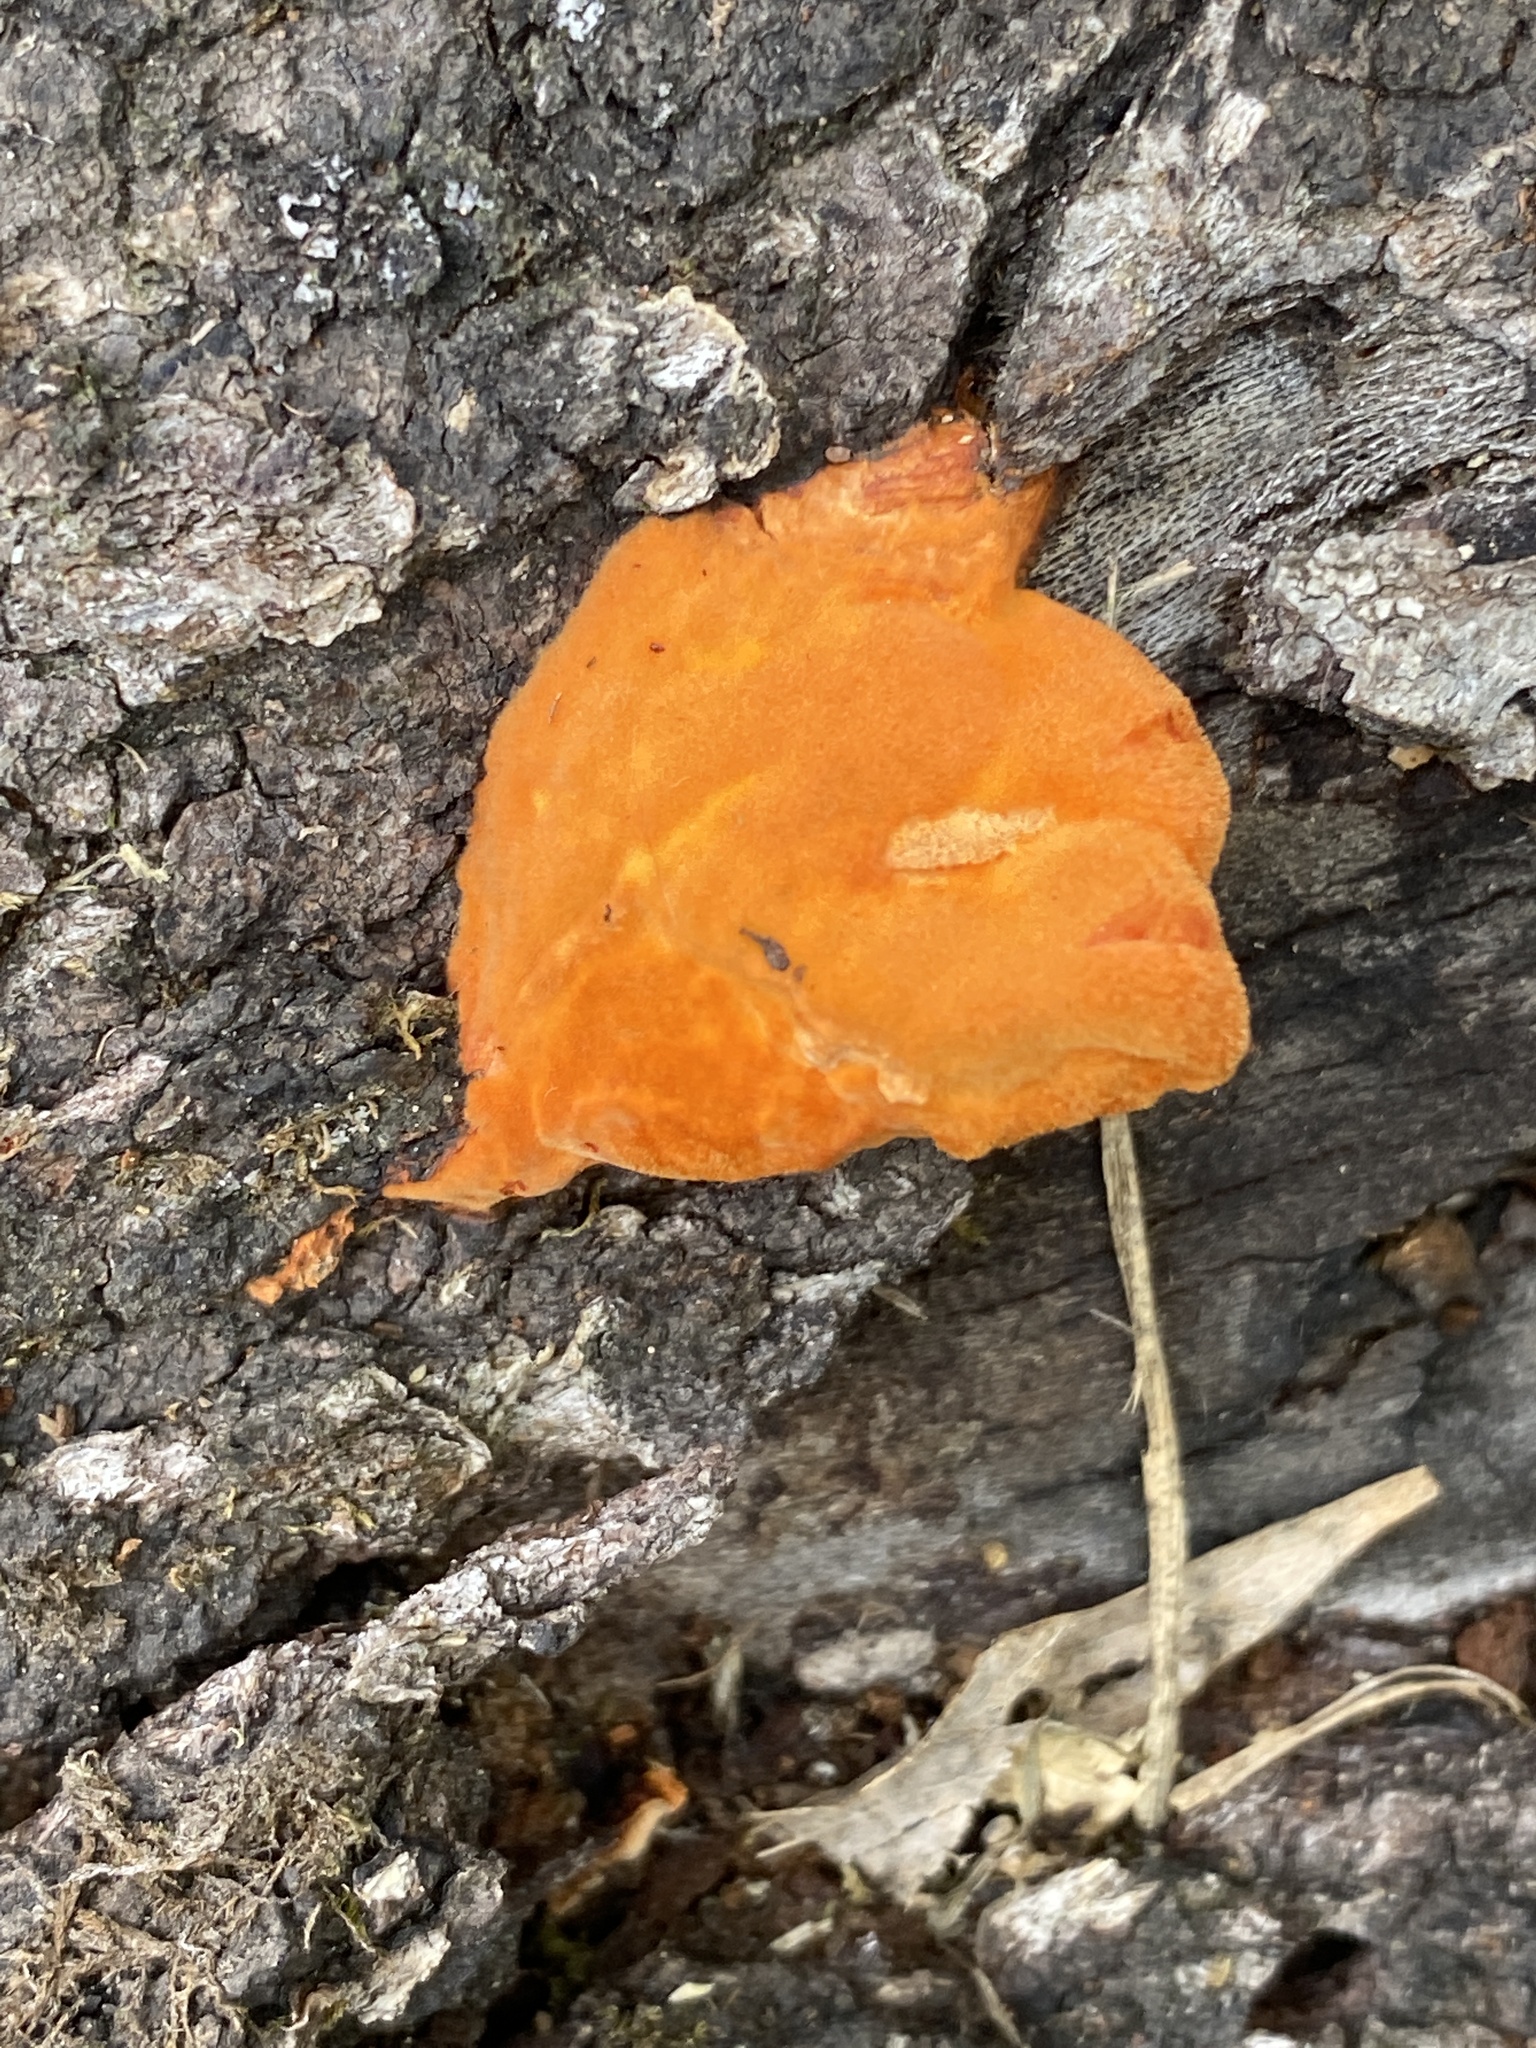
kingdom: Fungi
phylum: Basidiomycota
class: Agaricomycetes
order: Polyporales
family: Polyporaceae
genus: Trametes
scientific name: Trametes cinnabarina
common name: Northern cinnabar polypore
